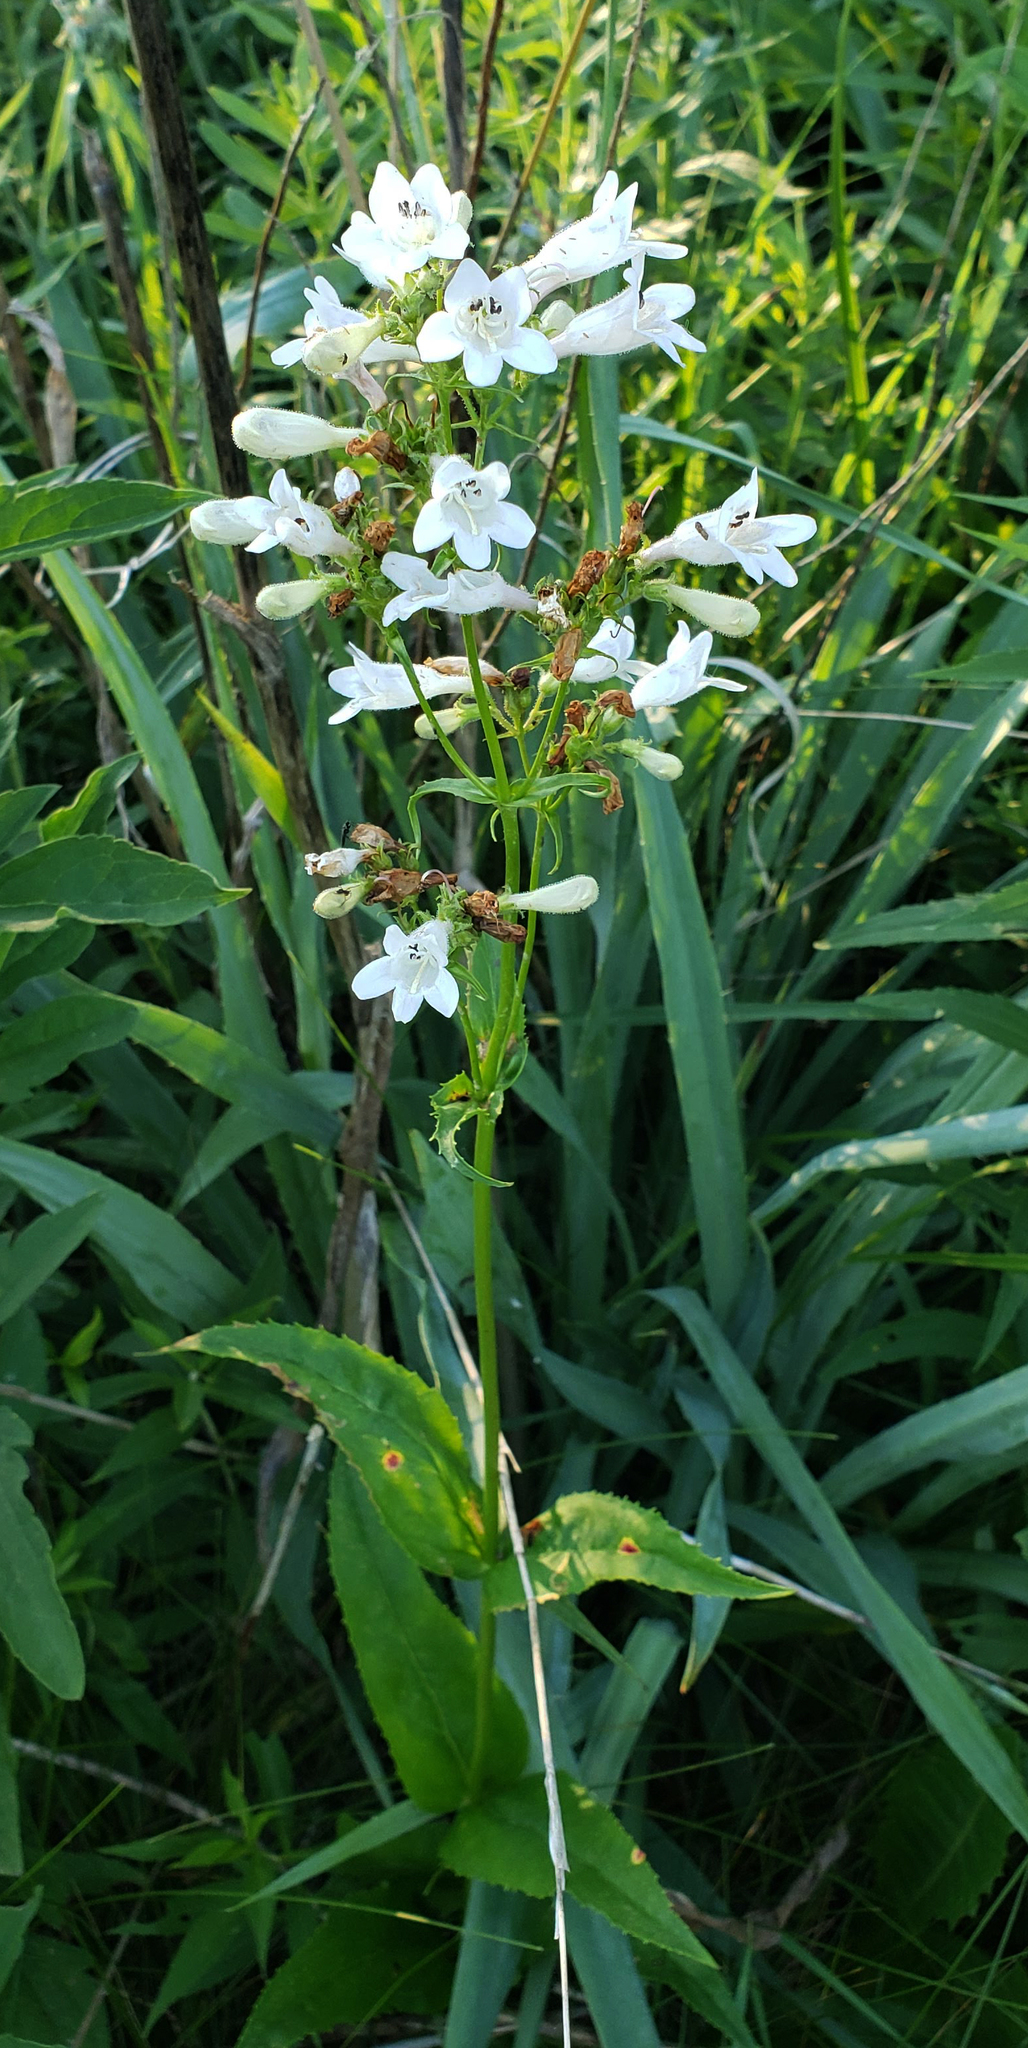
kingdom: Plantae
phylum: Tracheophyta
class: Magnoliopsida
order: Lamiales
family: Plantaginaceae
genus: Penstemon
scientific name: Penstemon digitalis
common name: Foxglove beardtongue
